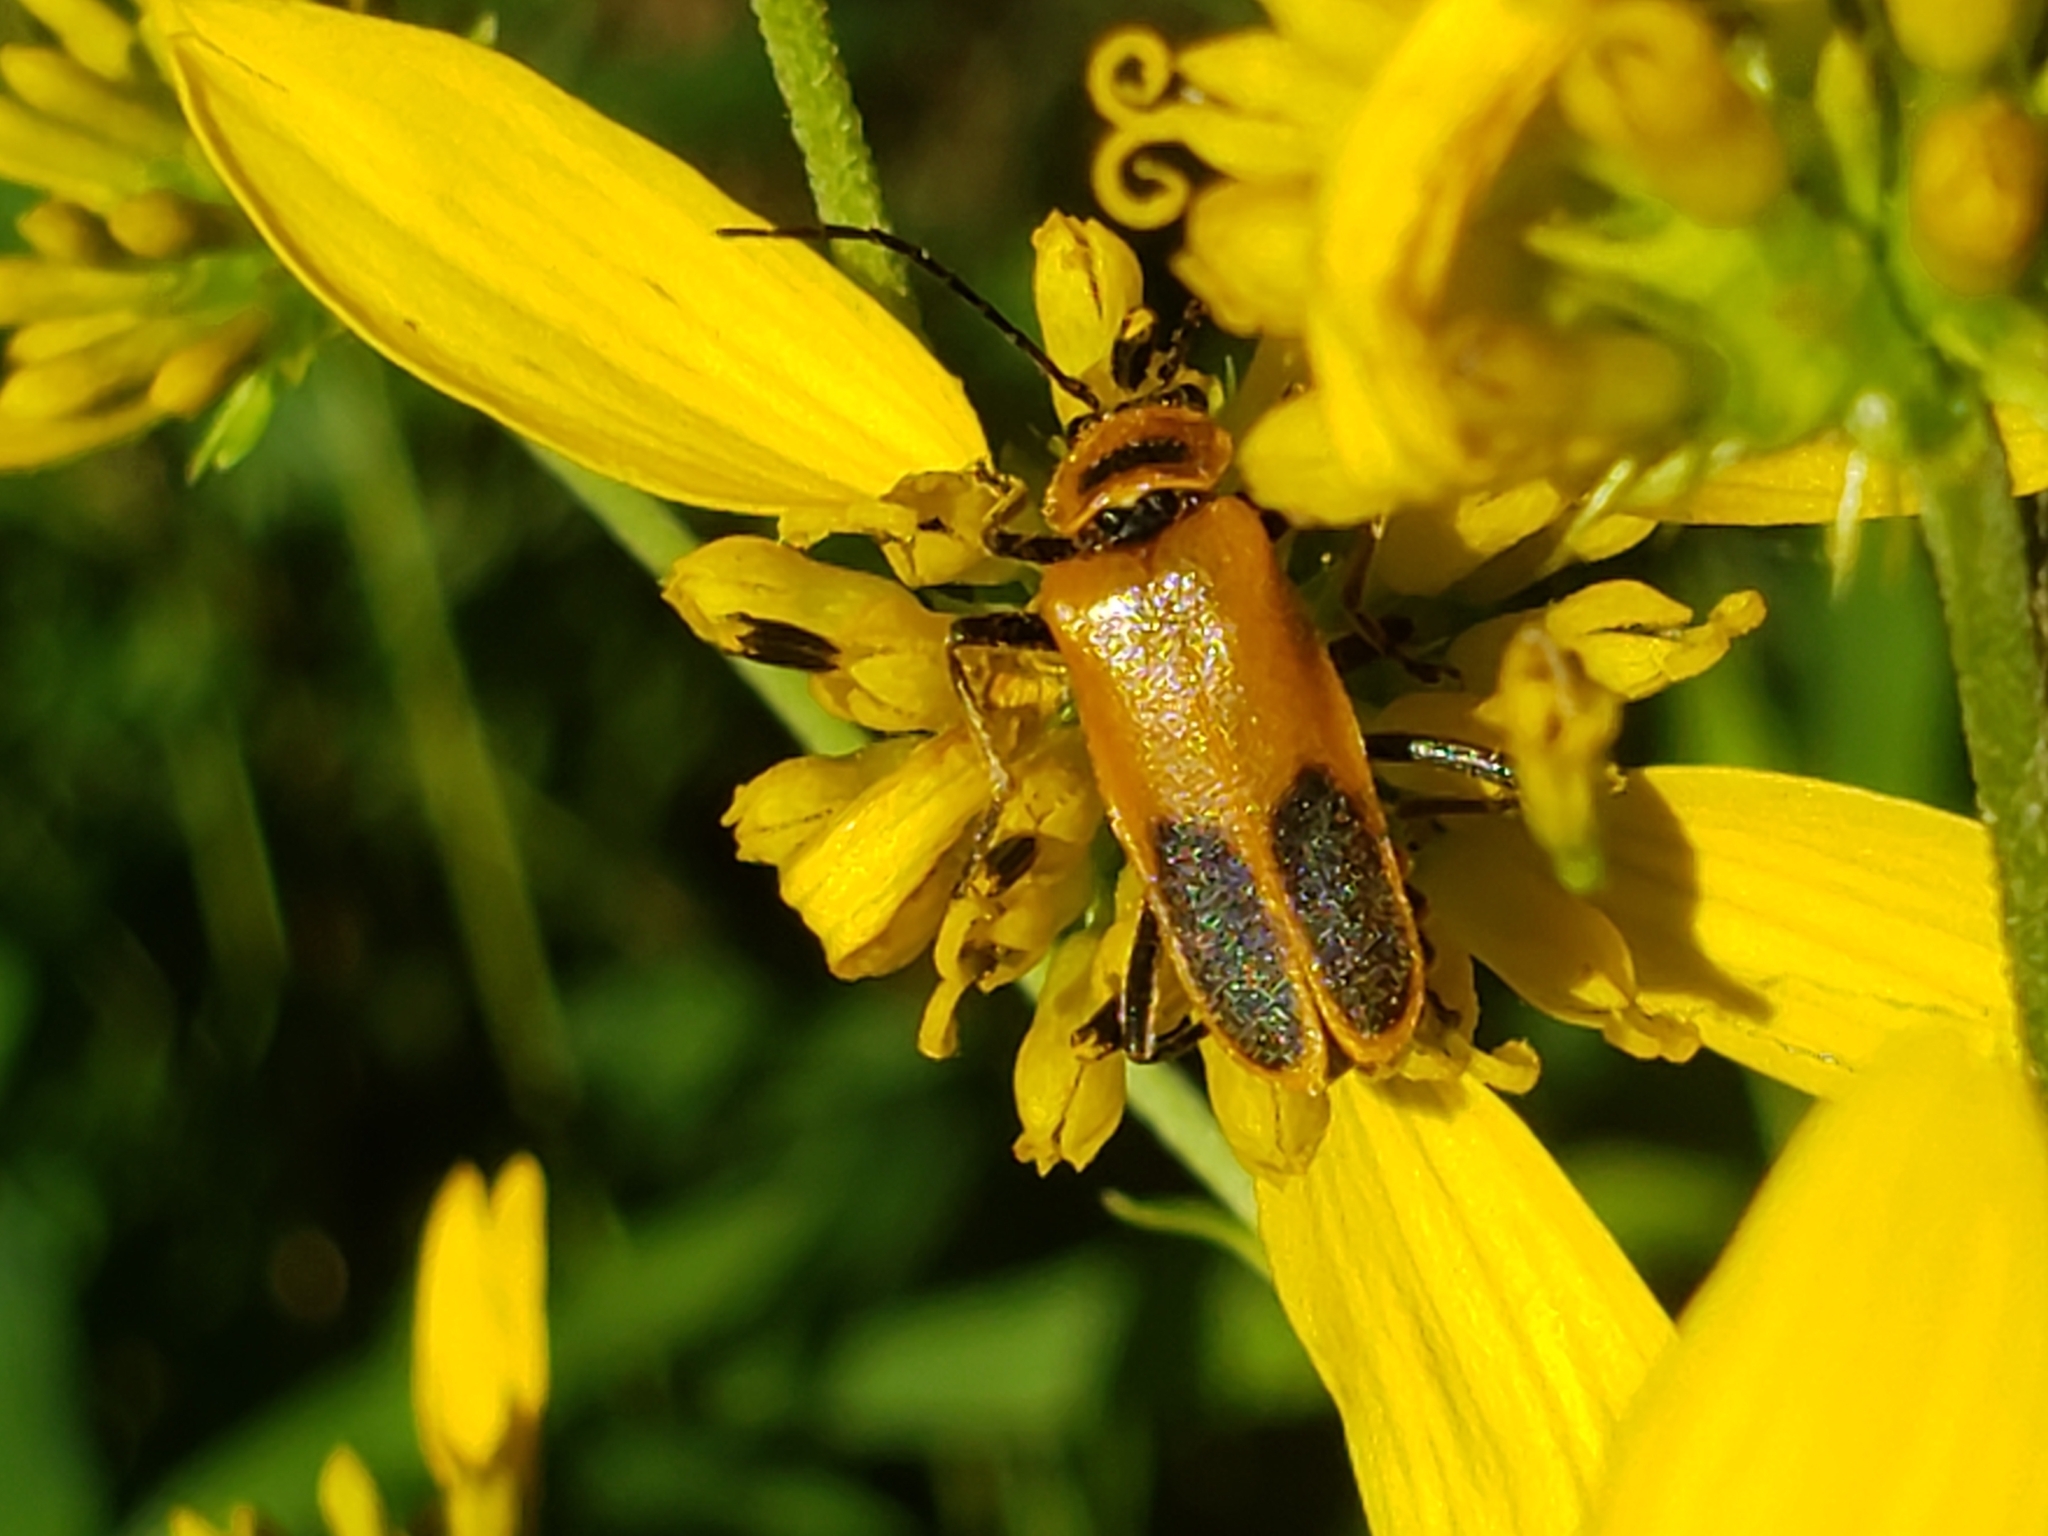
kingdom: Animalia
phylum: Arthropoda
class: Insecta
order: Coleoptera
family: Cantharidae
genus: Chauliognathus
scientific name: Chauliognathus pensylvanicus
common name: Goldenrod soldier beetle
